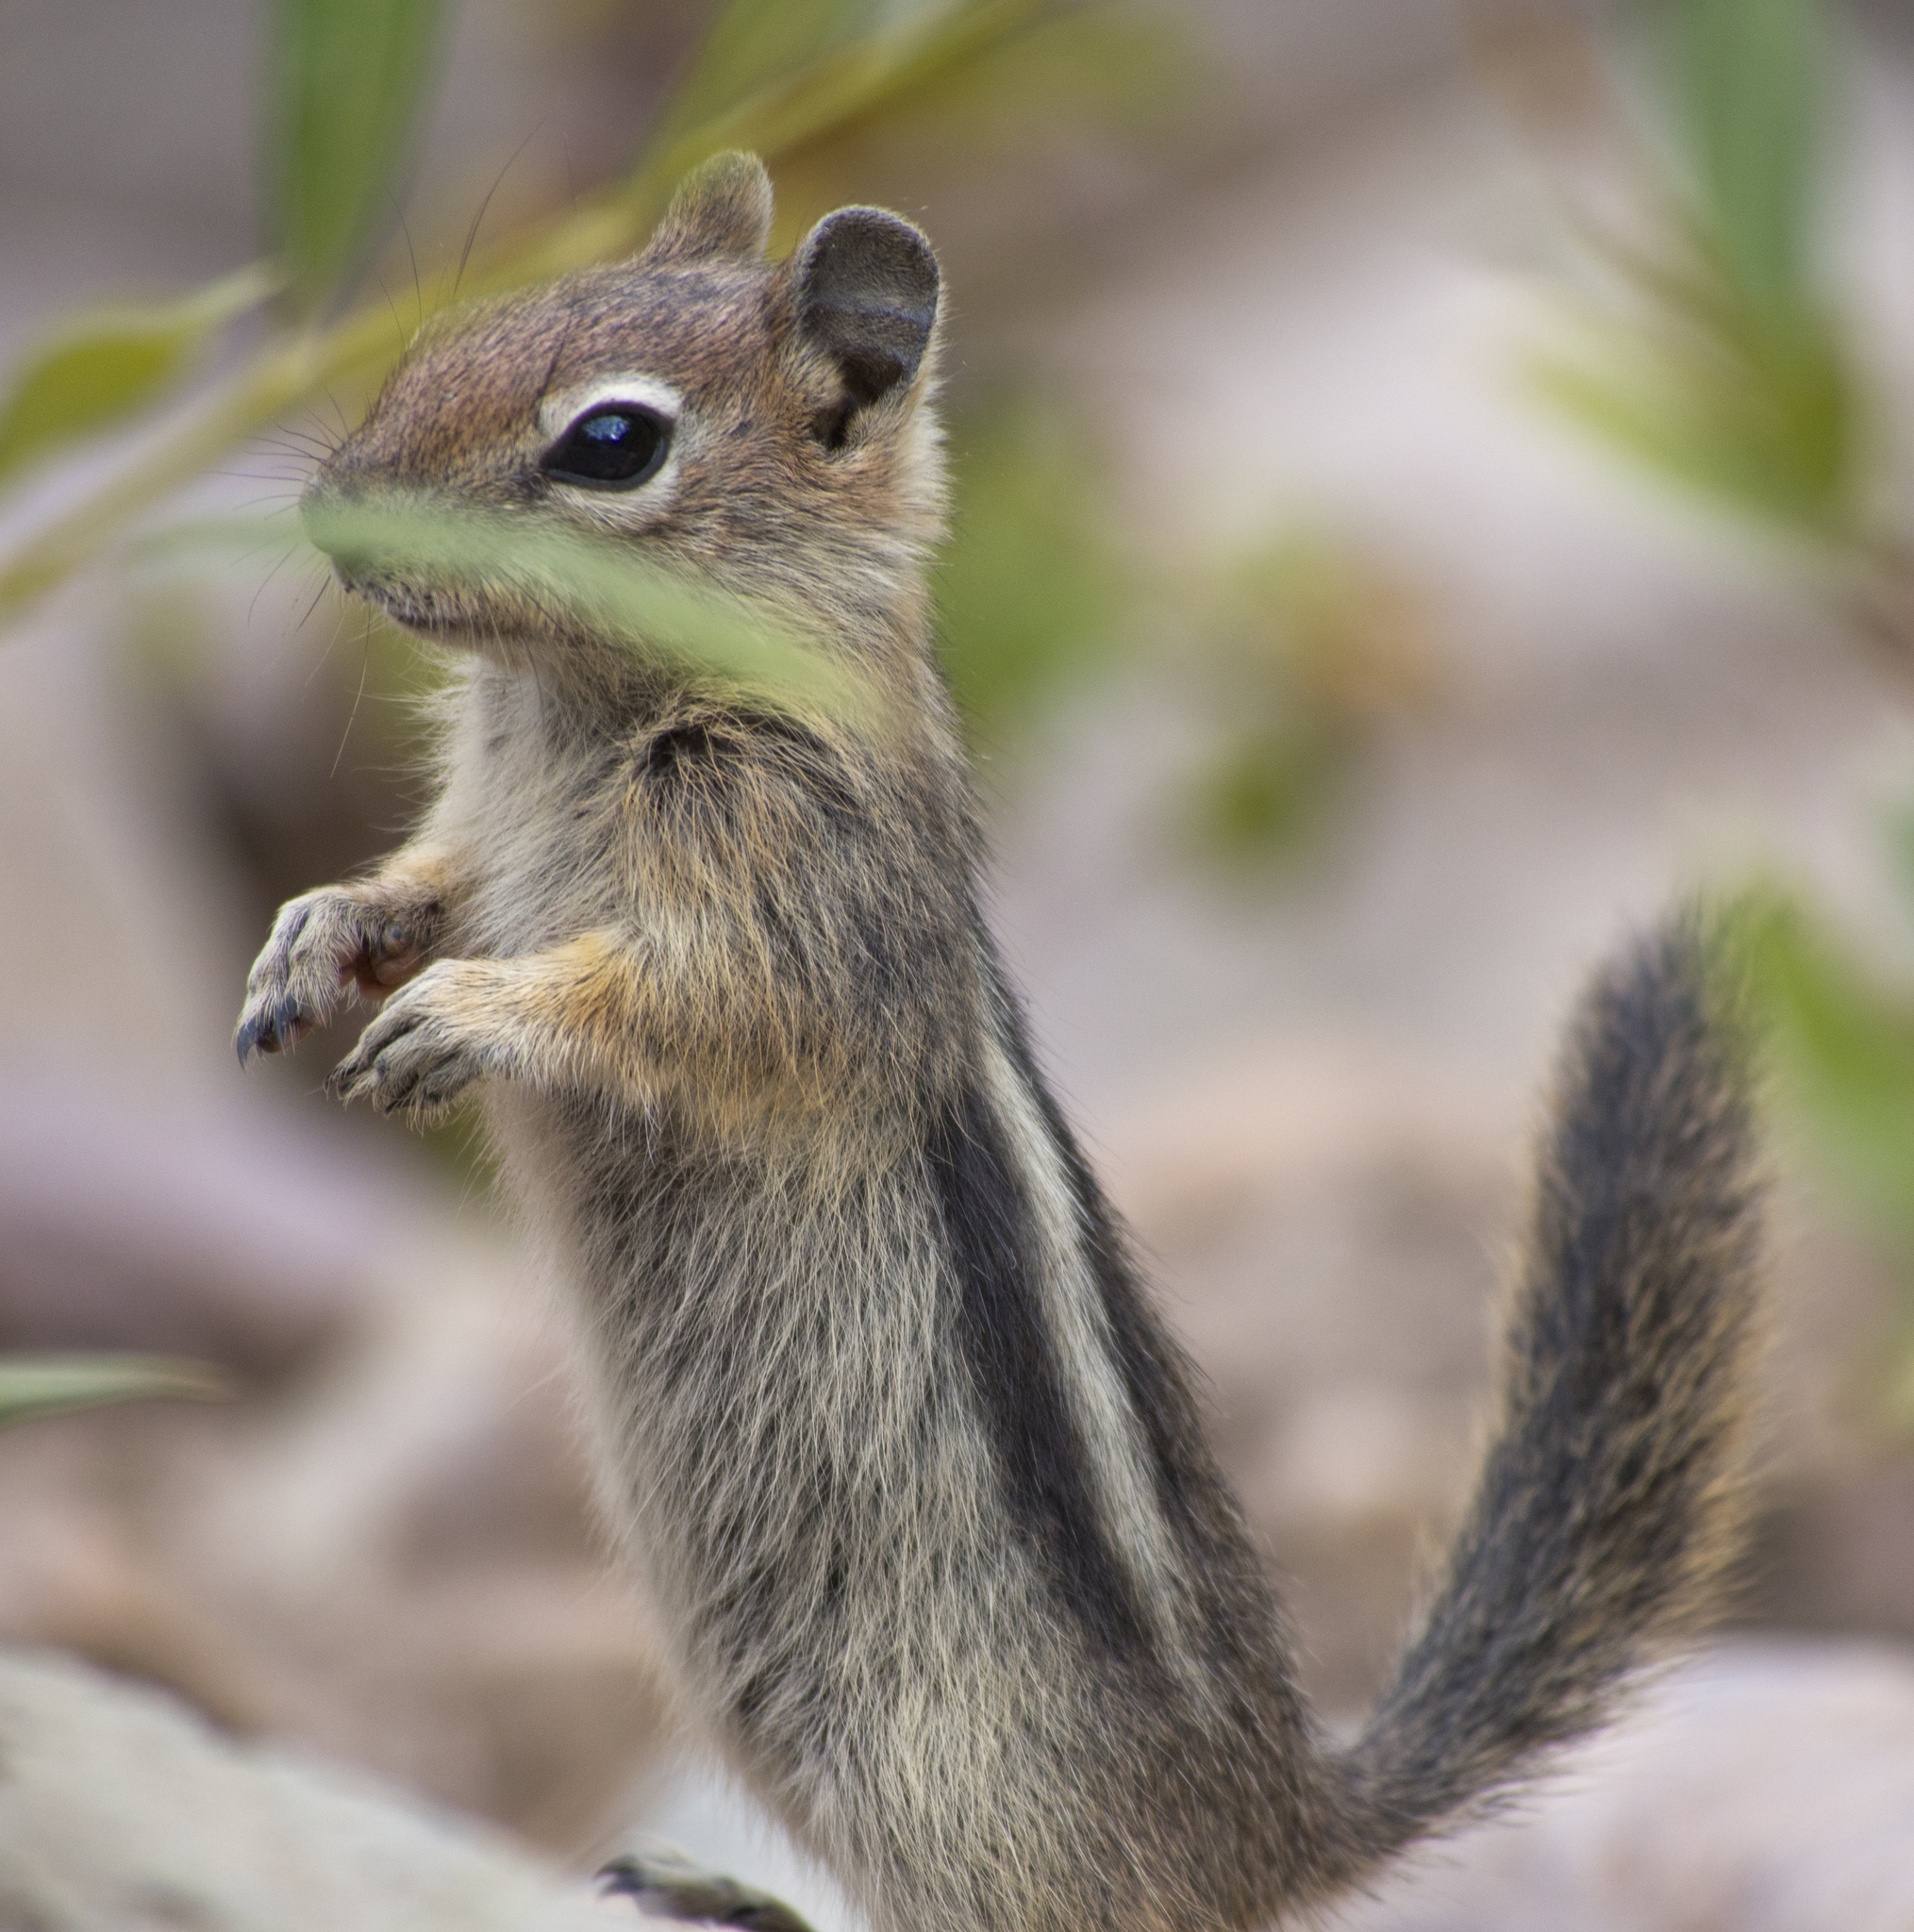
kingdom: Animalia
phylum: Chordata
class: Mammalia
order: Rodentia
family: Sciuridae
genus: Callospermophilus
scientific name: Callospermophilus lateralis
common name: Golden-mantled ground squirrel
